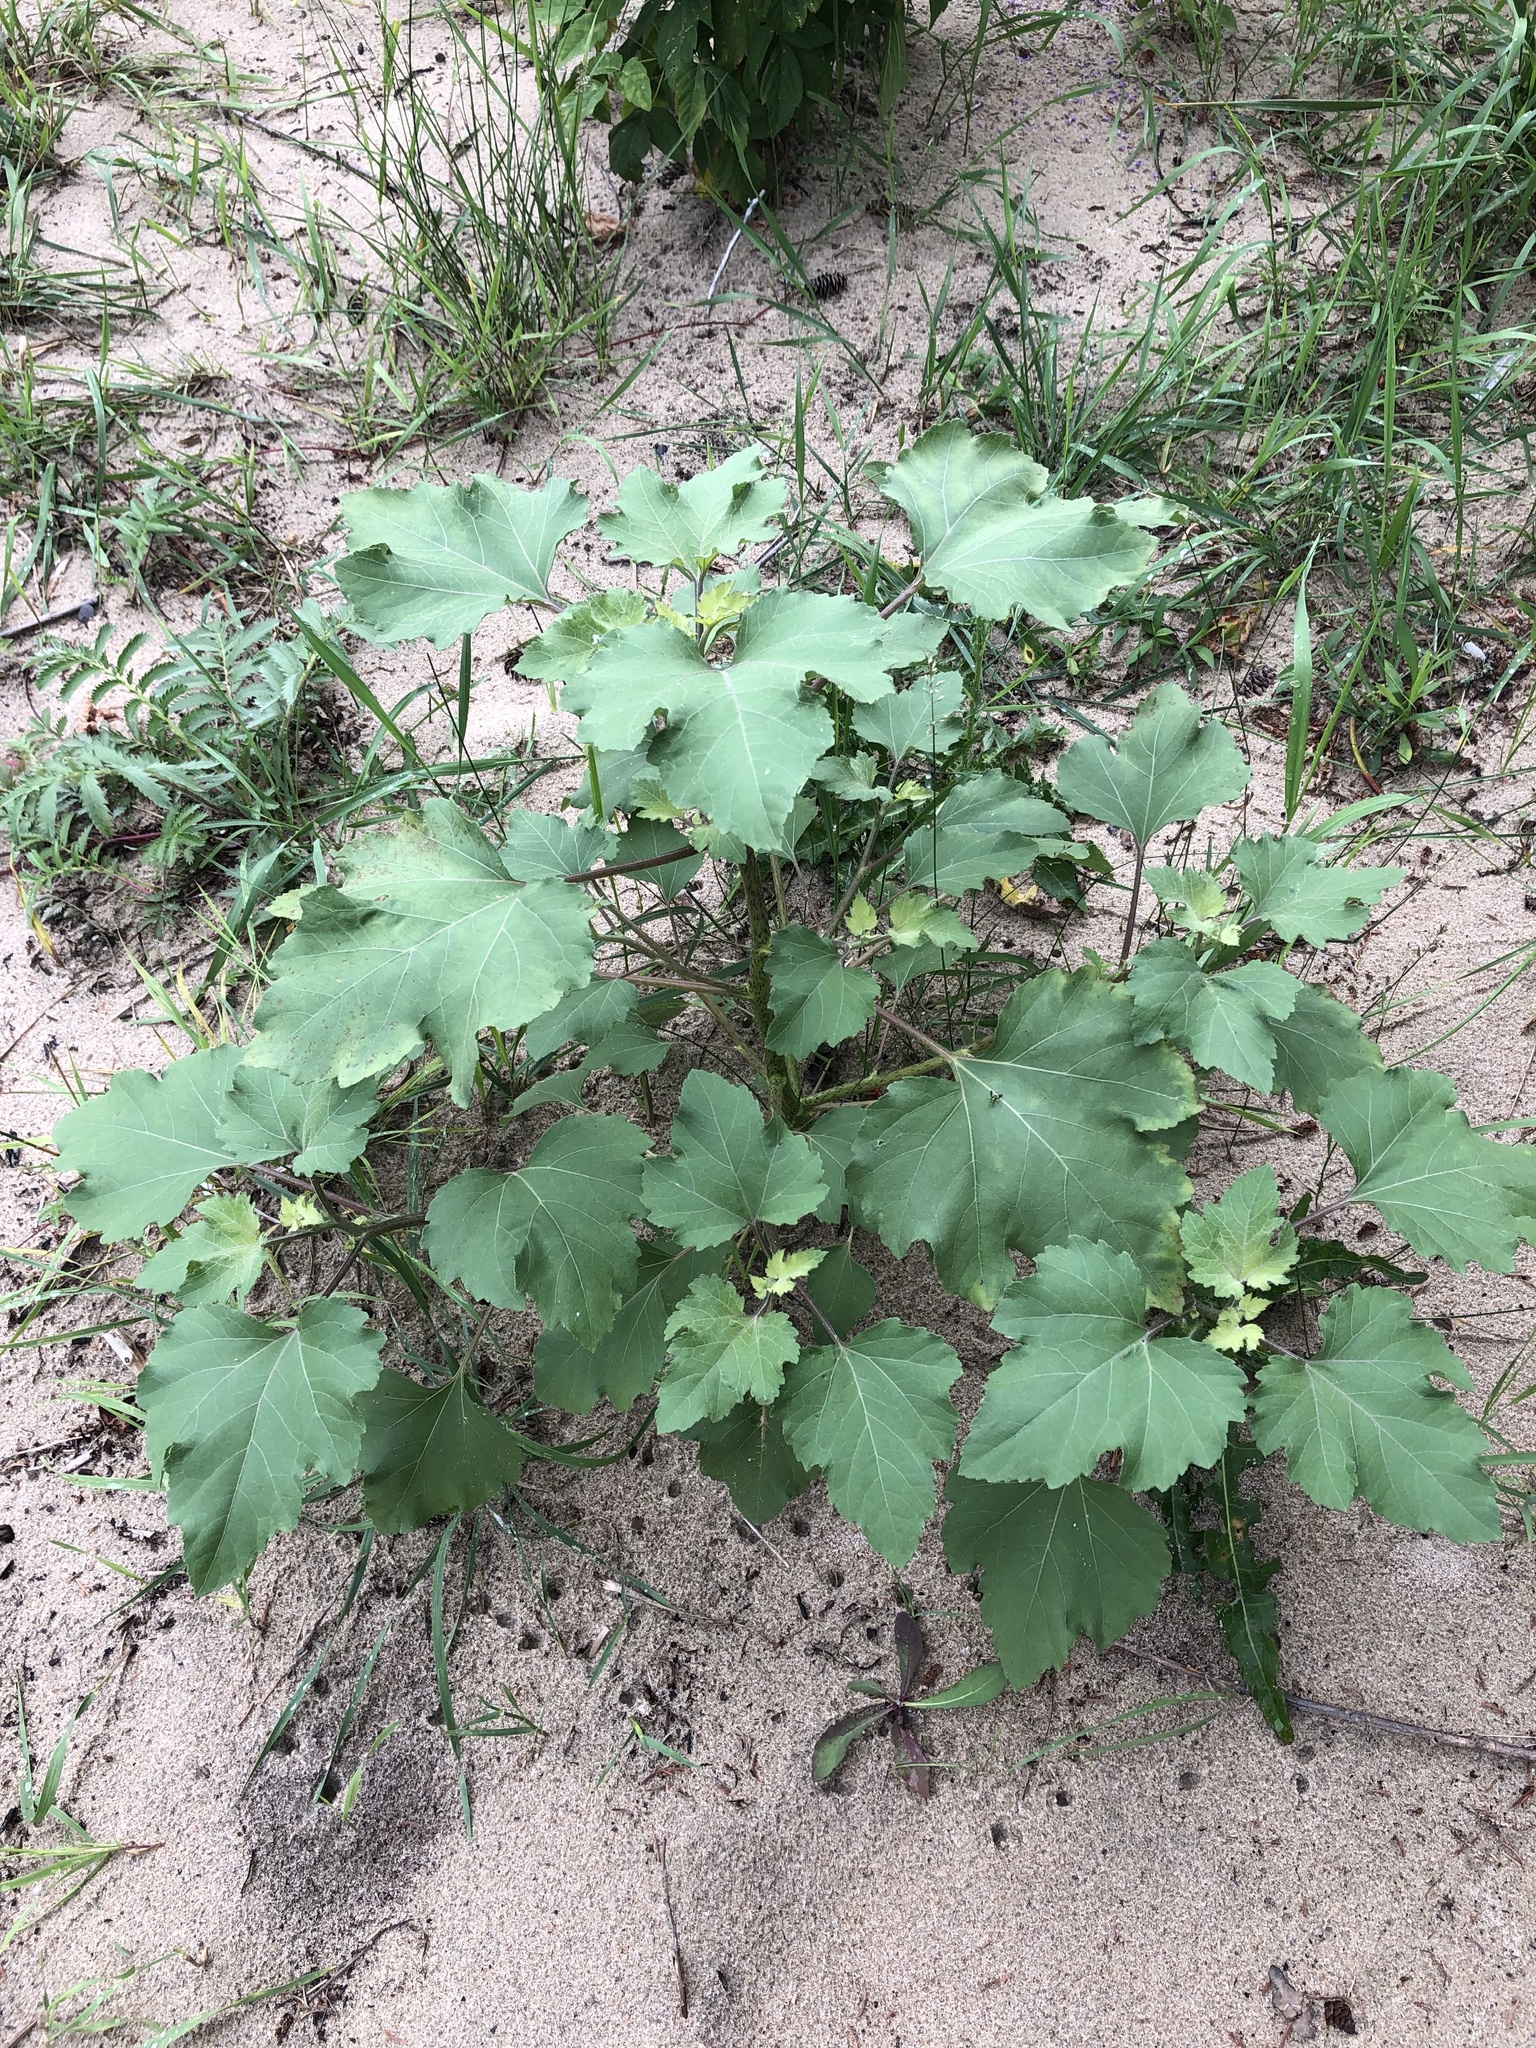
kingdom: Plantae
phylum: Tracheophyta
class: Magnoliopsida
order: Asterales
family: Asteraceae
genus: Xanthium
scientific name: Xanthium strumarium
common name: Rough cocklebur
